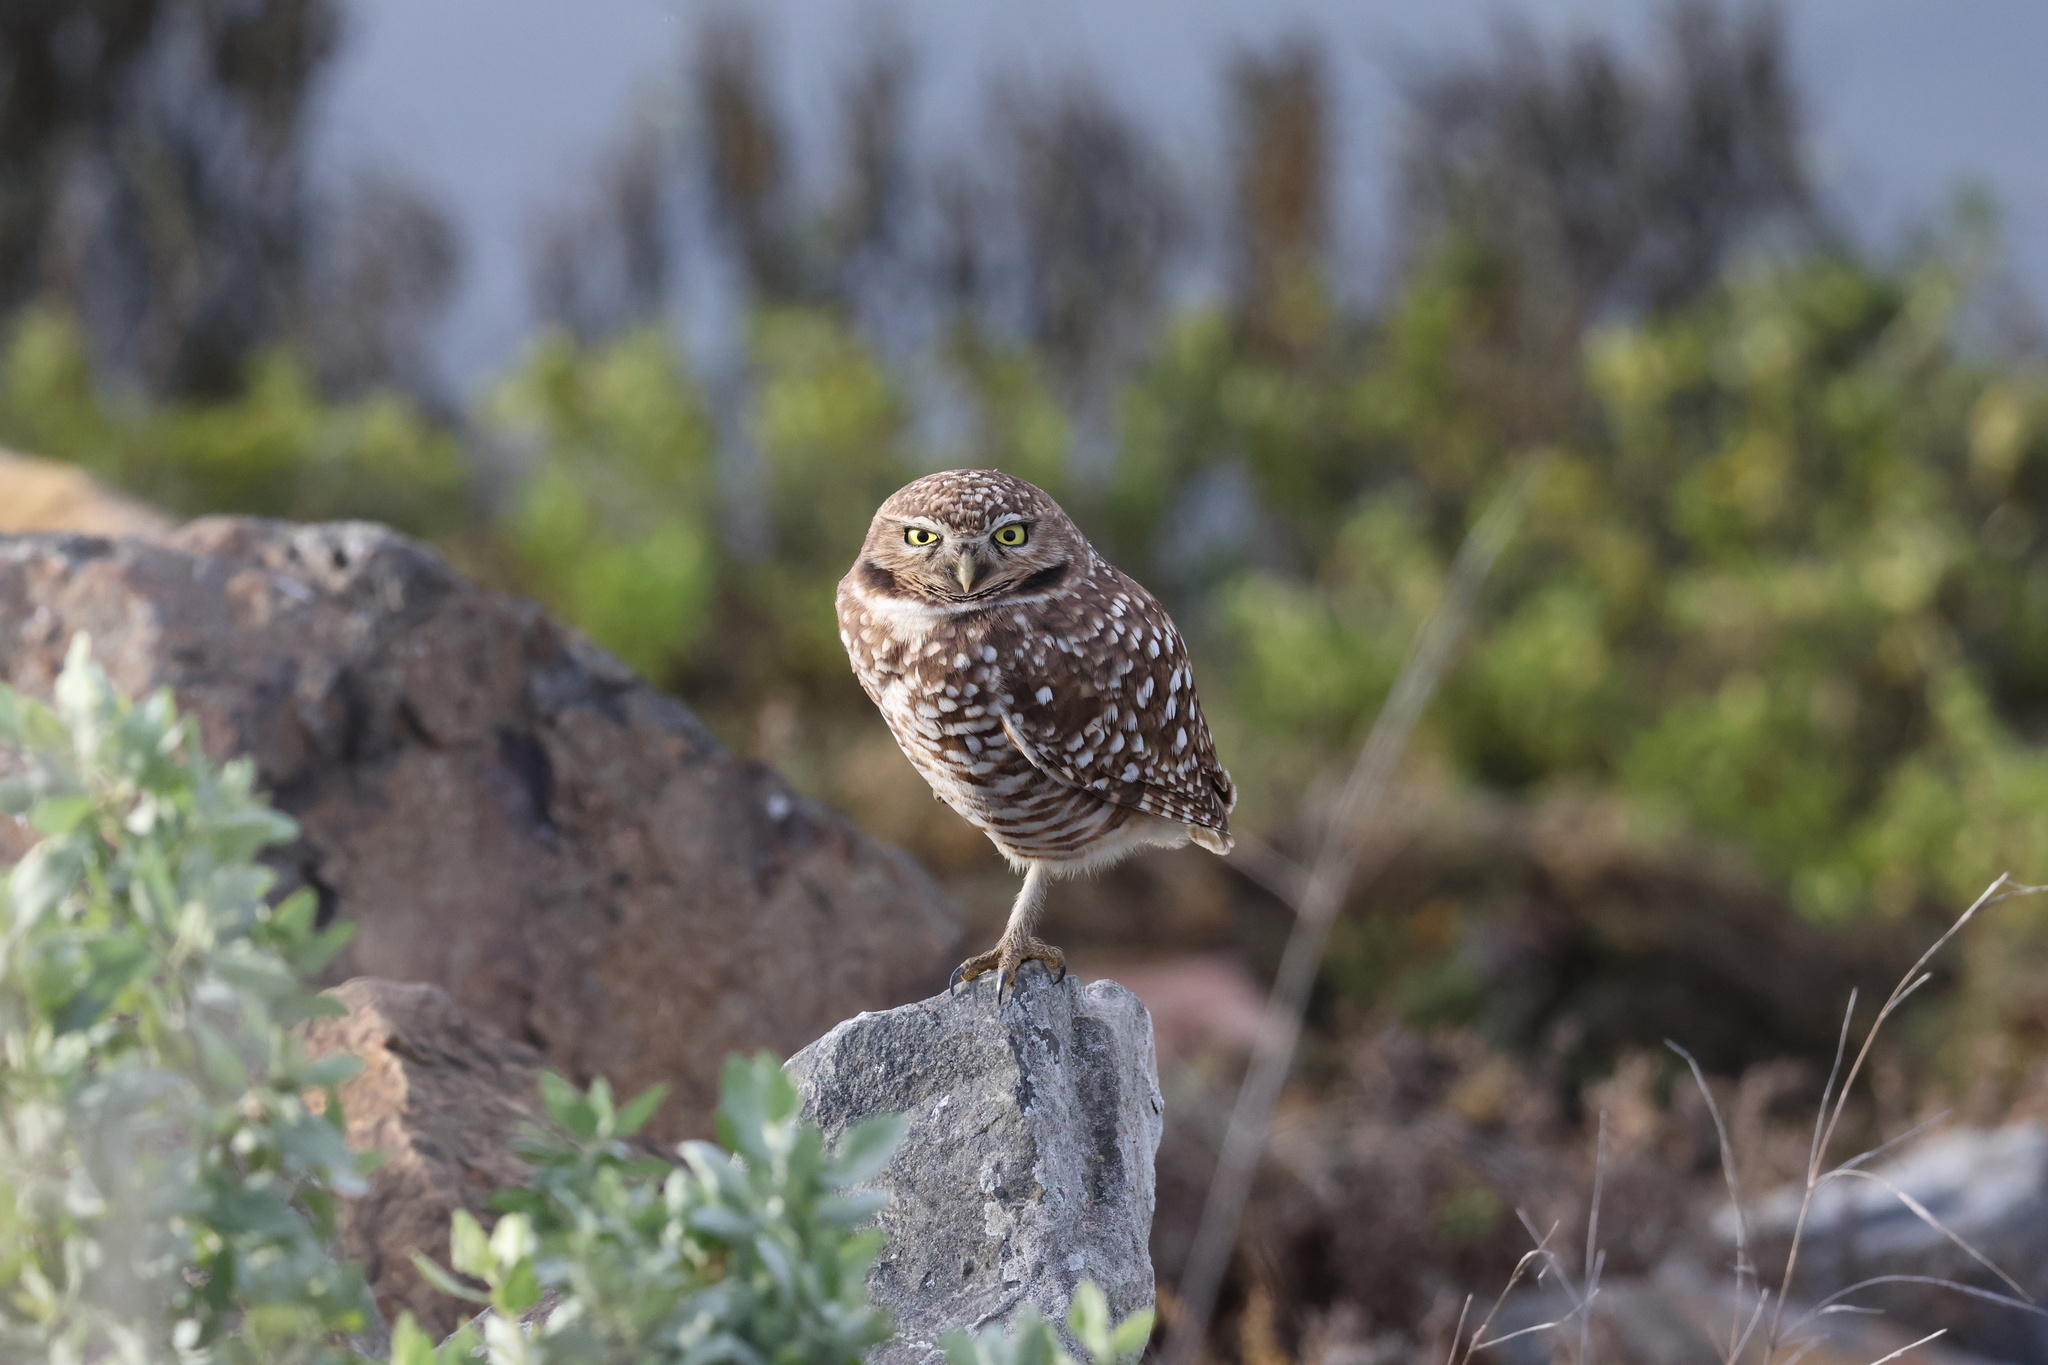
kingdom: Animalia
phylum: Chordata
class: Aves
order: Strigiformes
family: Strigidae
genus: Athene
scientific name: Athene cunicularia
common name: Burrowing owl
